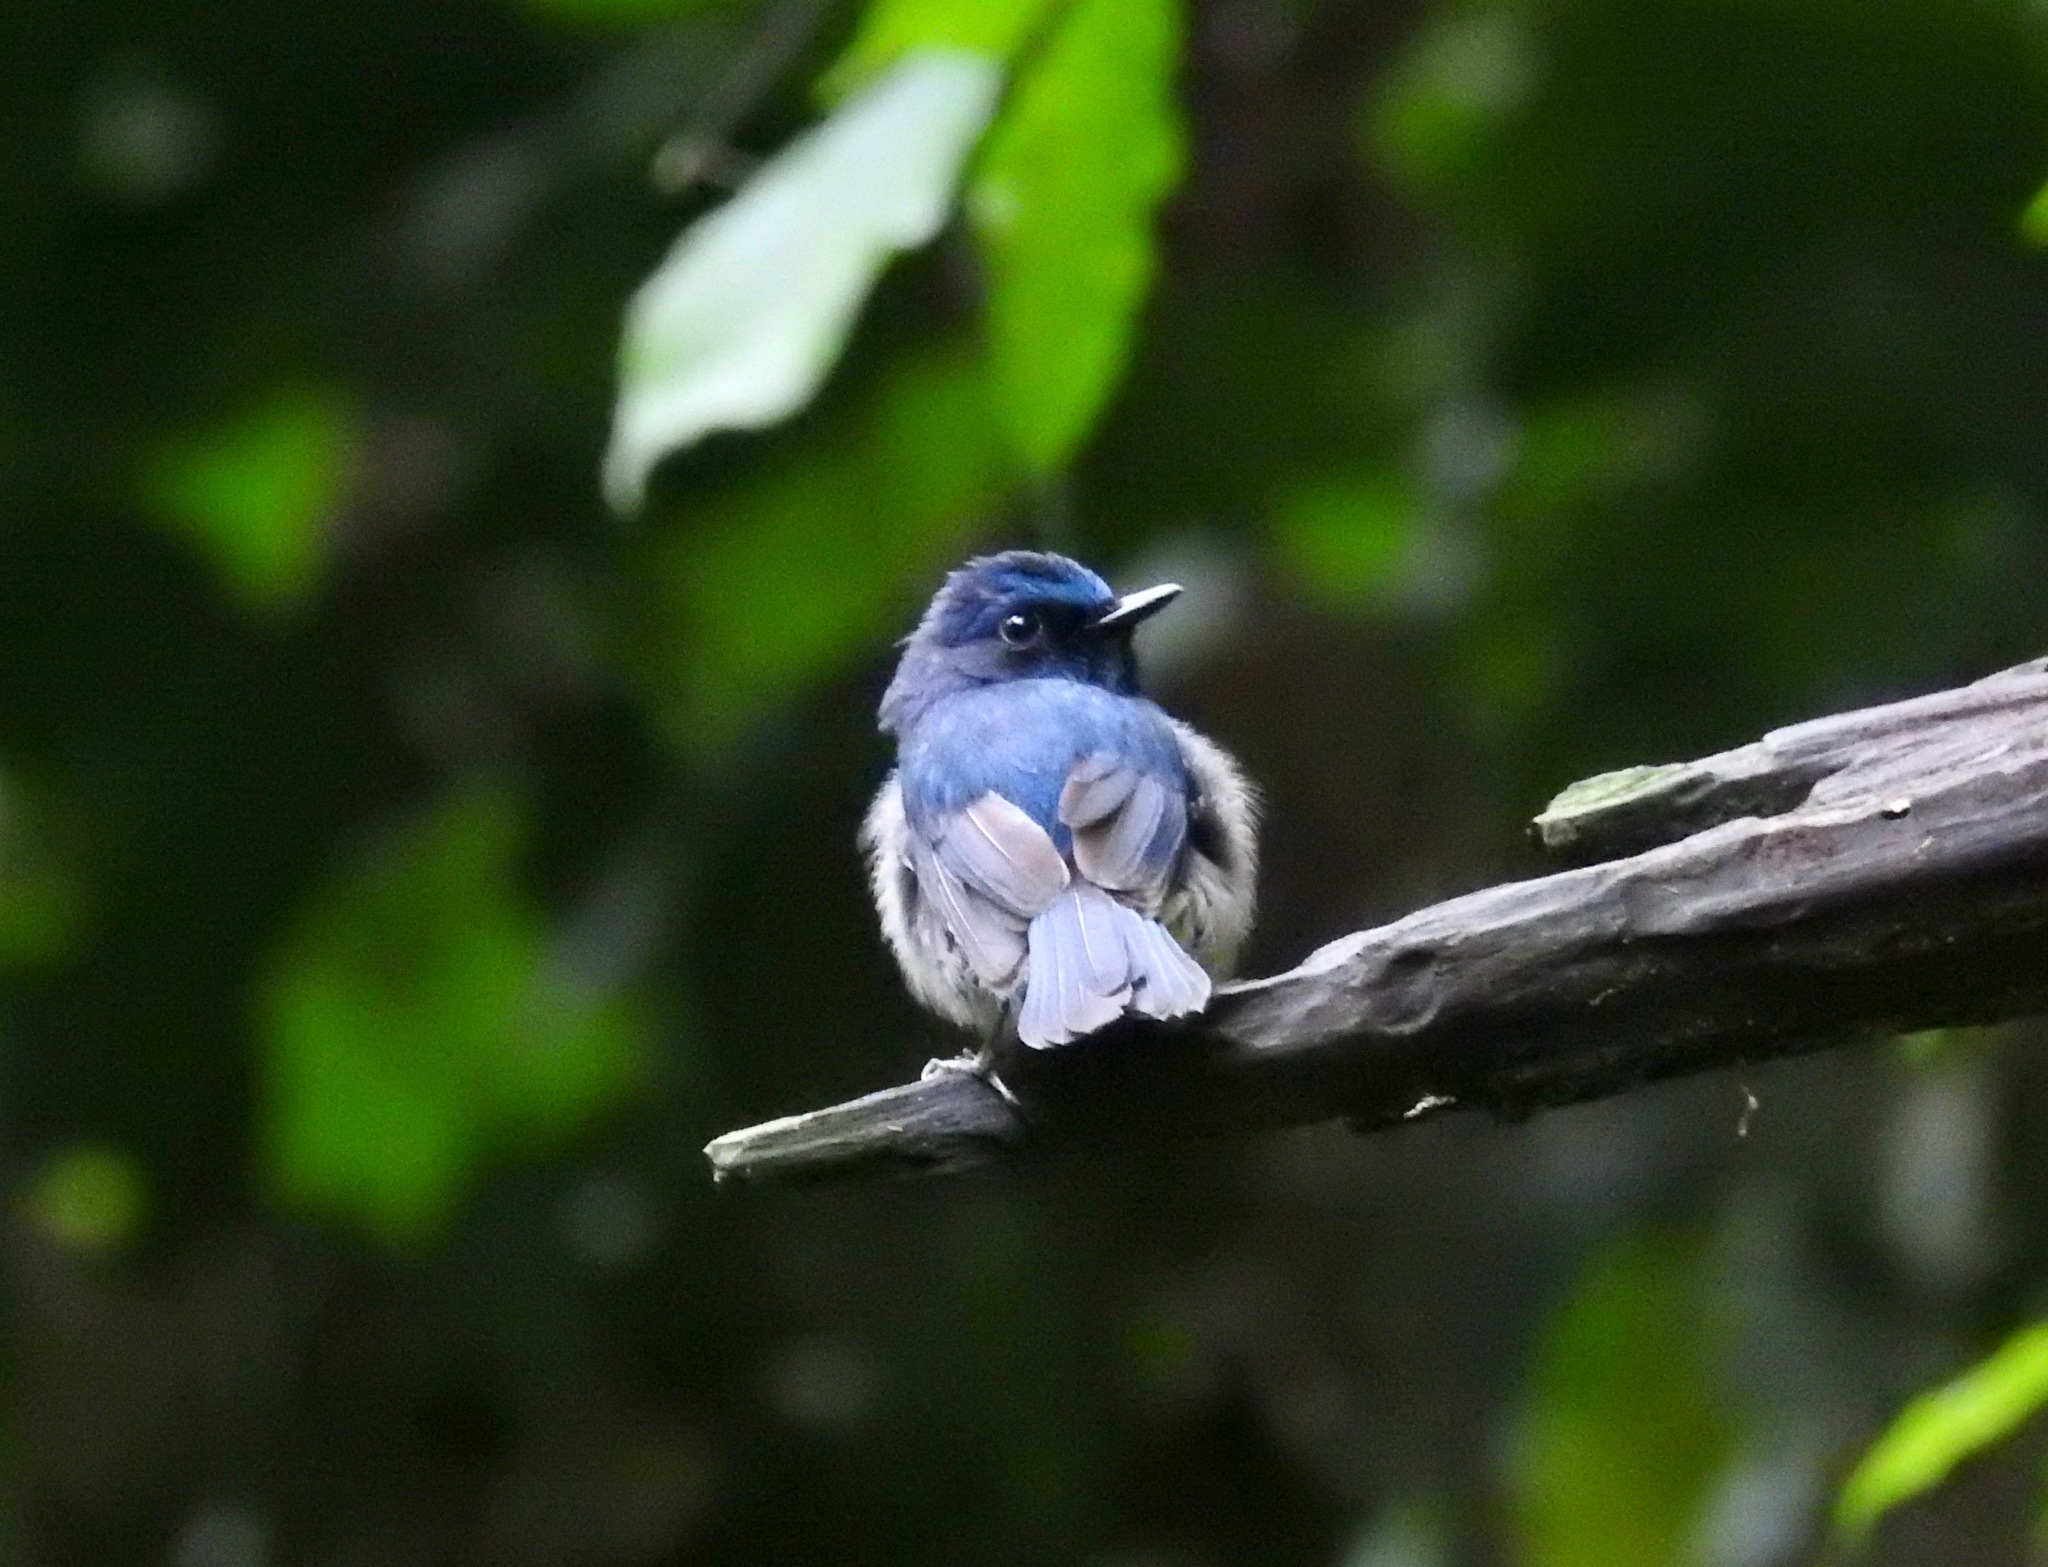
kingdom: Animalia
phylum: Chordata
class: Aves
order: Passeriformes
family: Muscicapidae
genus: Cyornis
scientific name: Cyornis hainanus
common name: Hainan blue flycatcher
